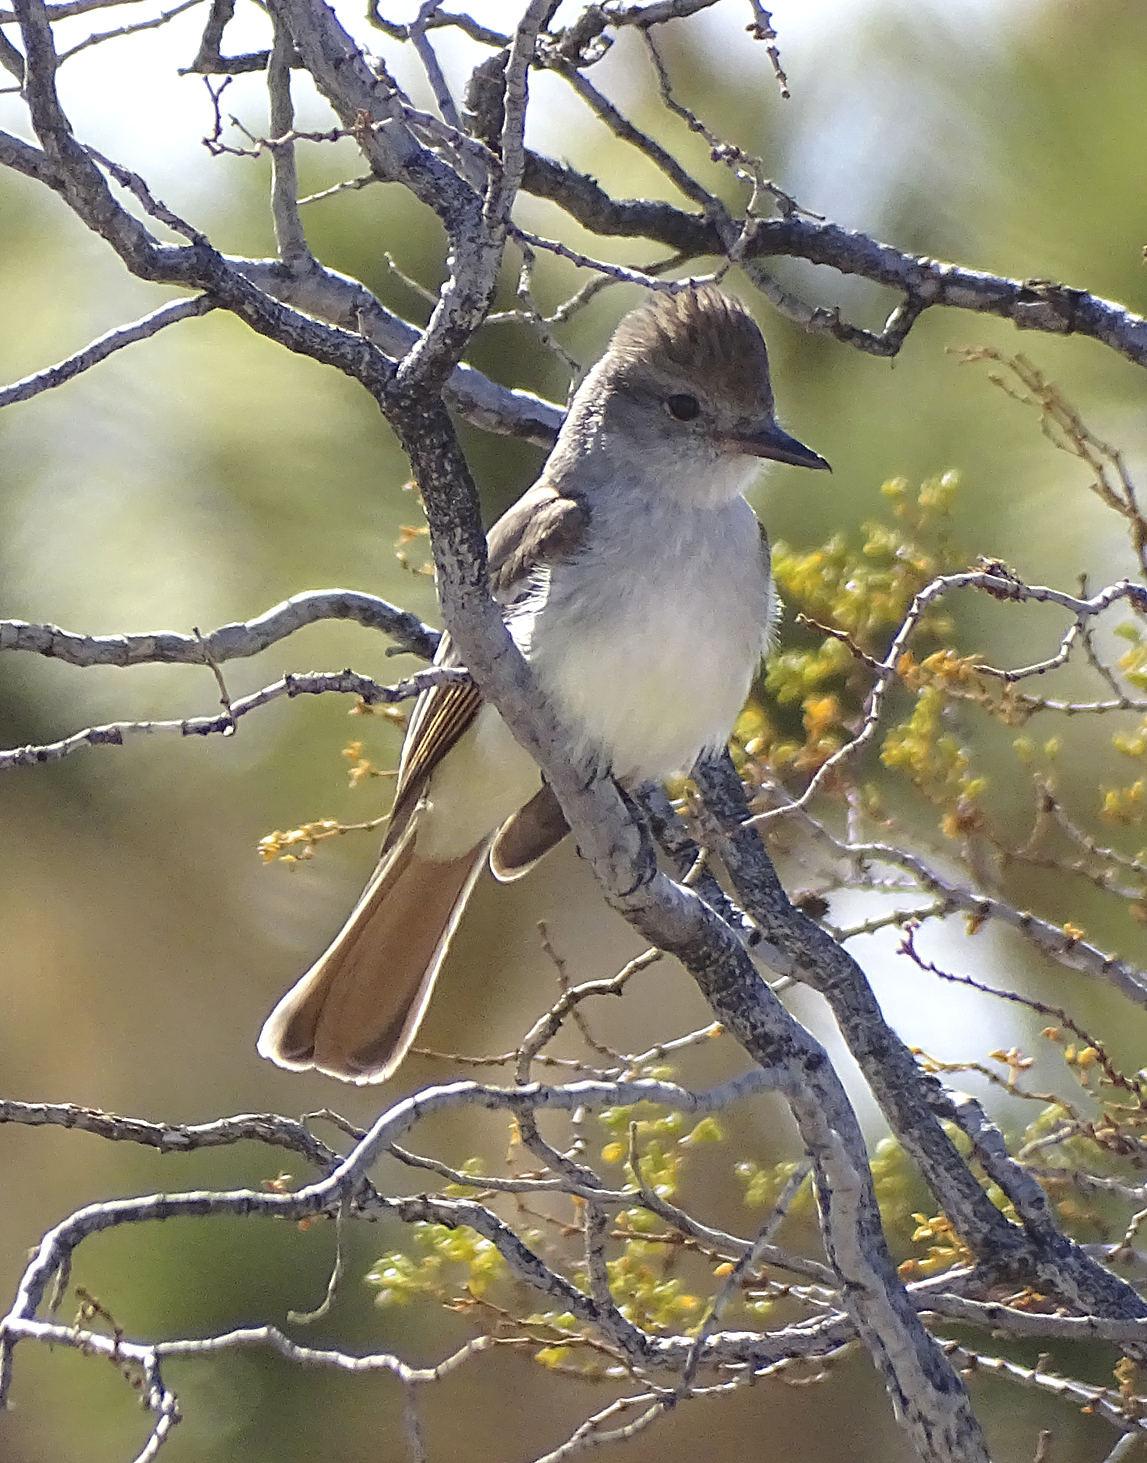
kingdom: Animalia
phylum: Chordata
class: Aves
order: Passeriformes
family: Tyrannidae
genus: Myiarchus
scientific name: Myiarchus cinerascens
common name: Ash-throated flycatcher
